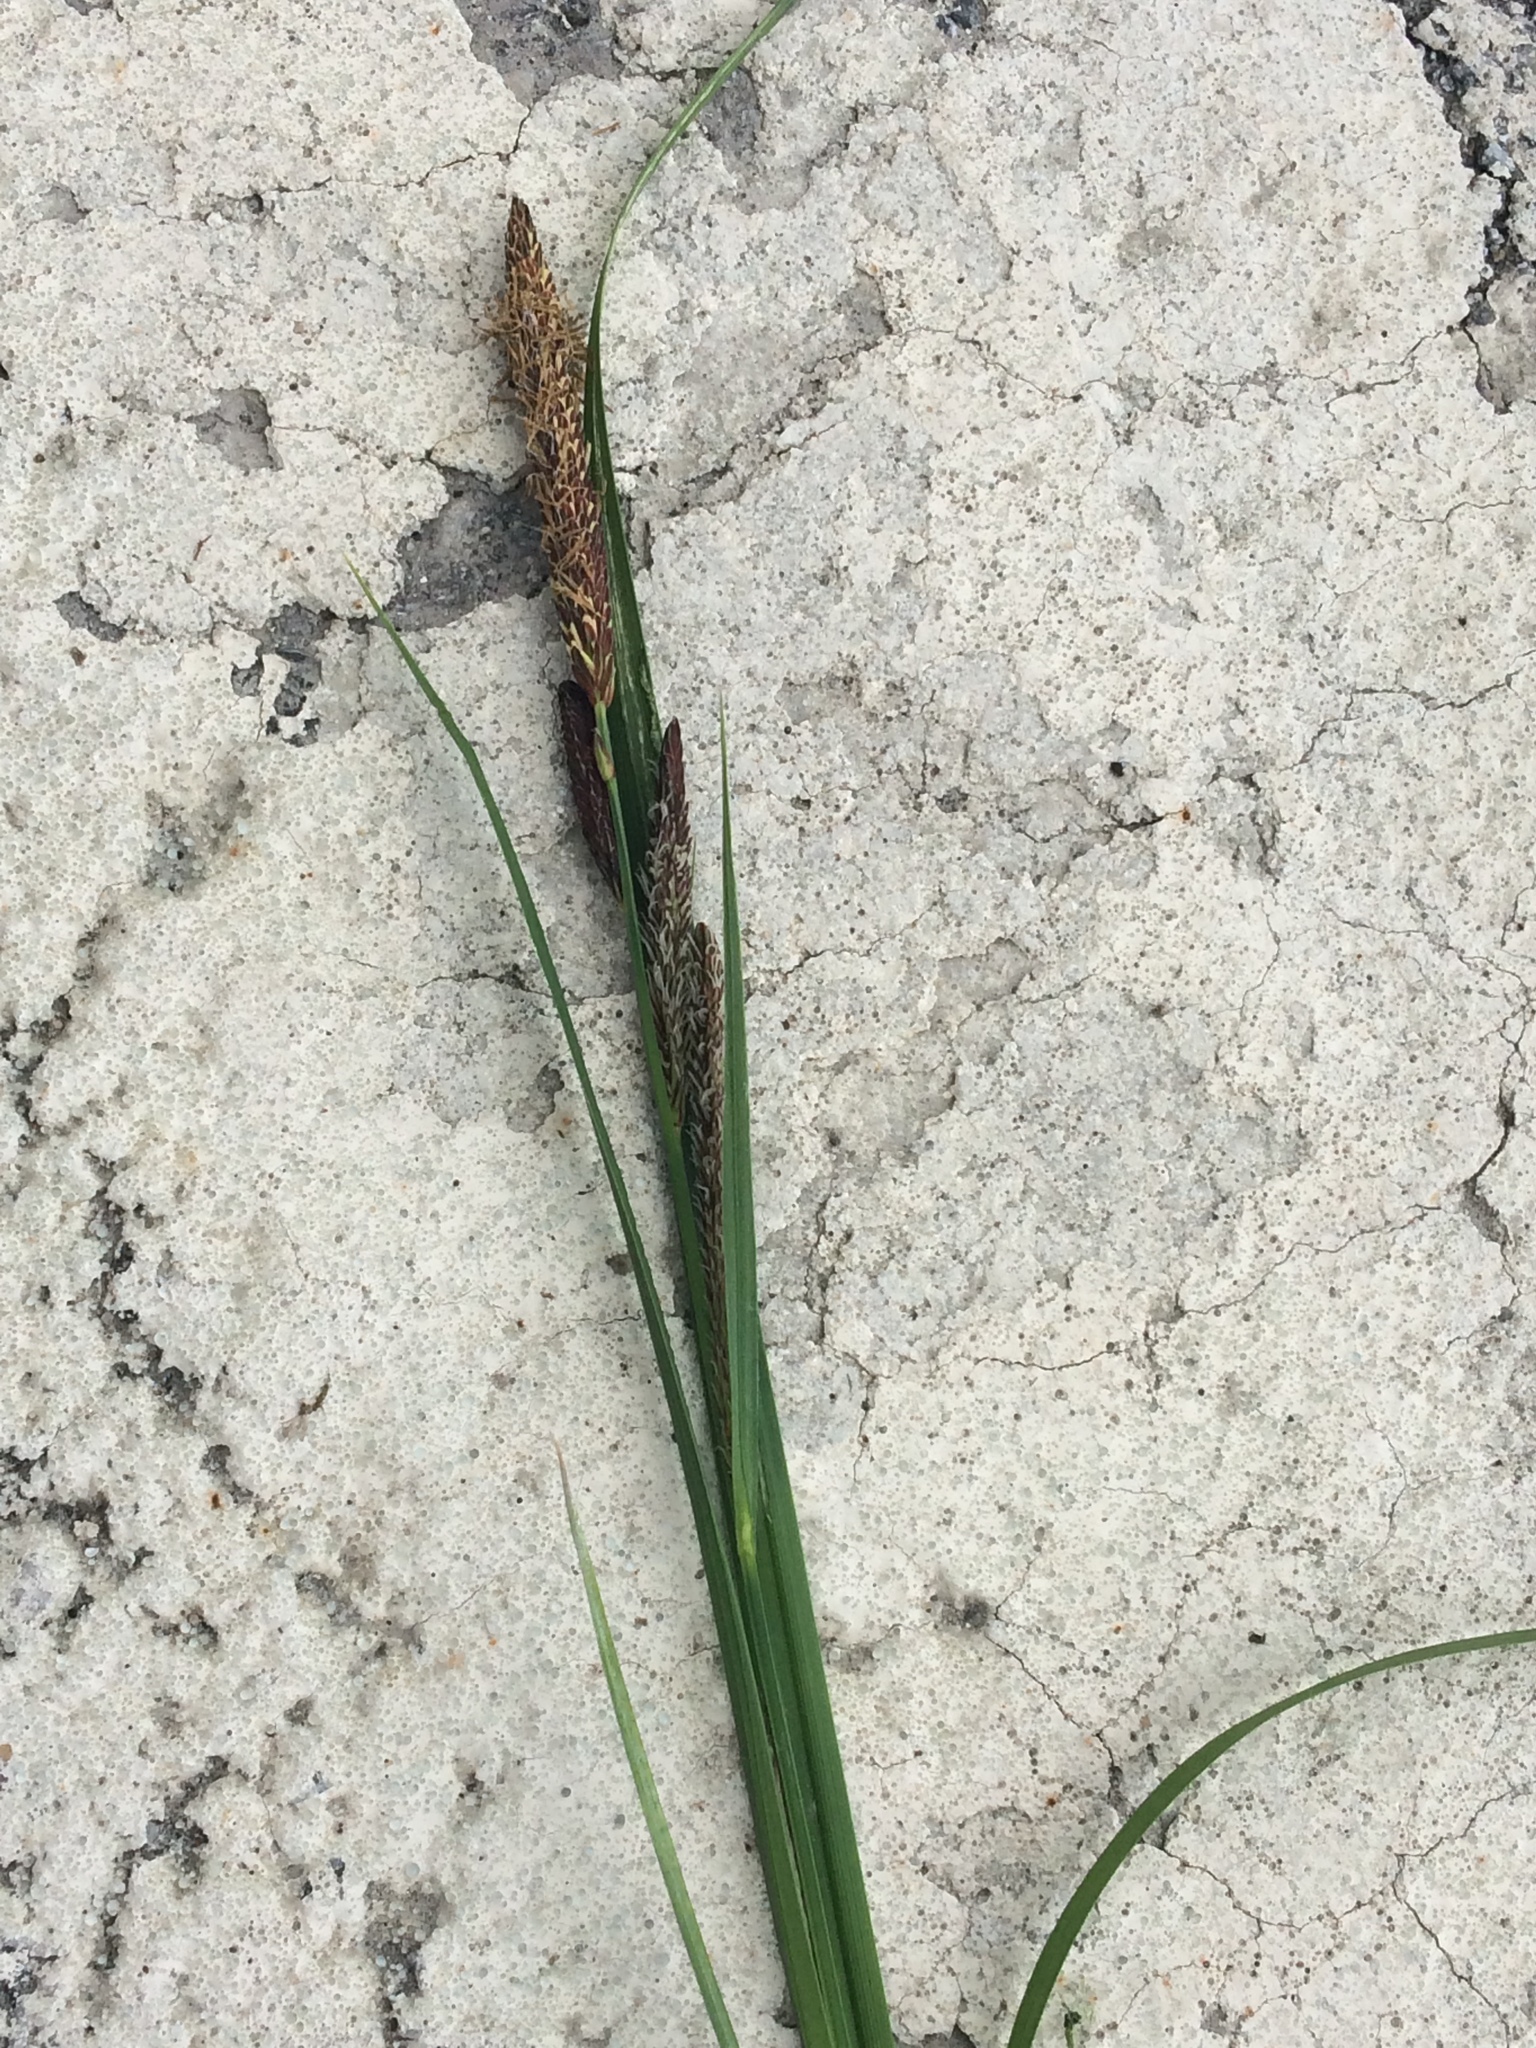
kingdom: Plantae
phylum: Tracheophyta
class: Liliopsida
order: Poales
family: Cyperaceae
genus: Carex
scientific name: Carex
